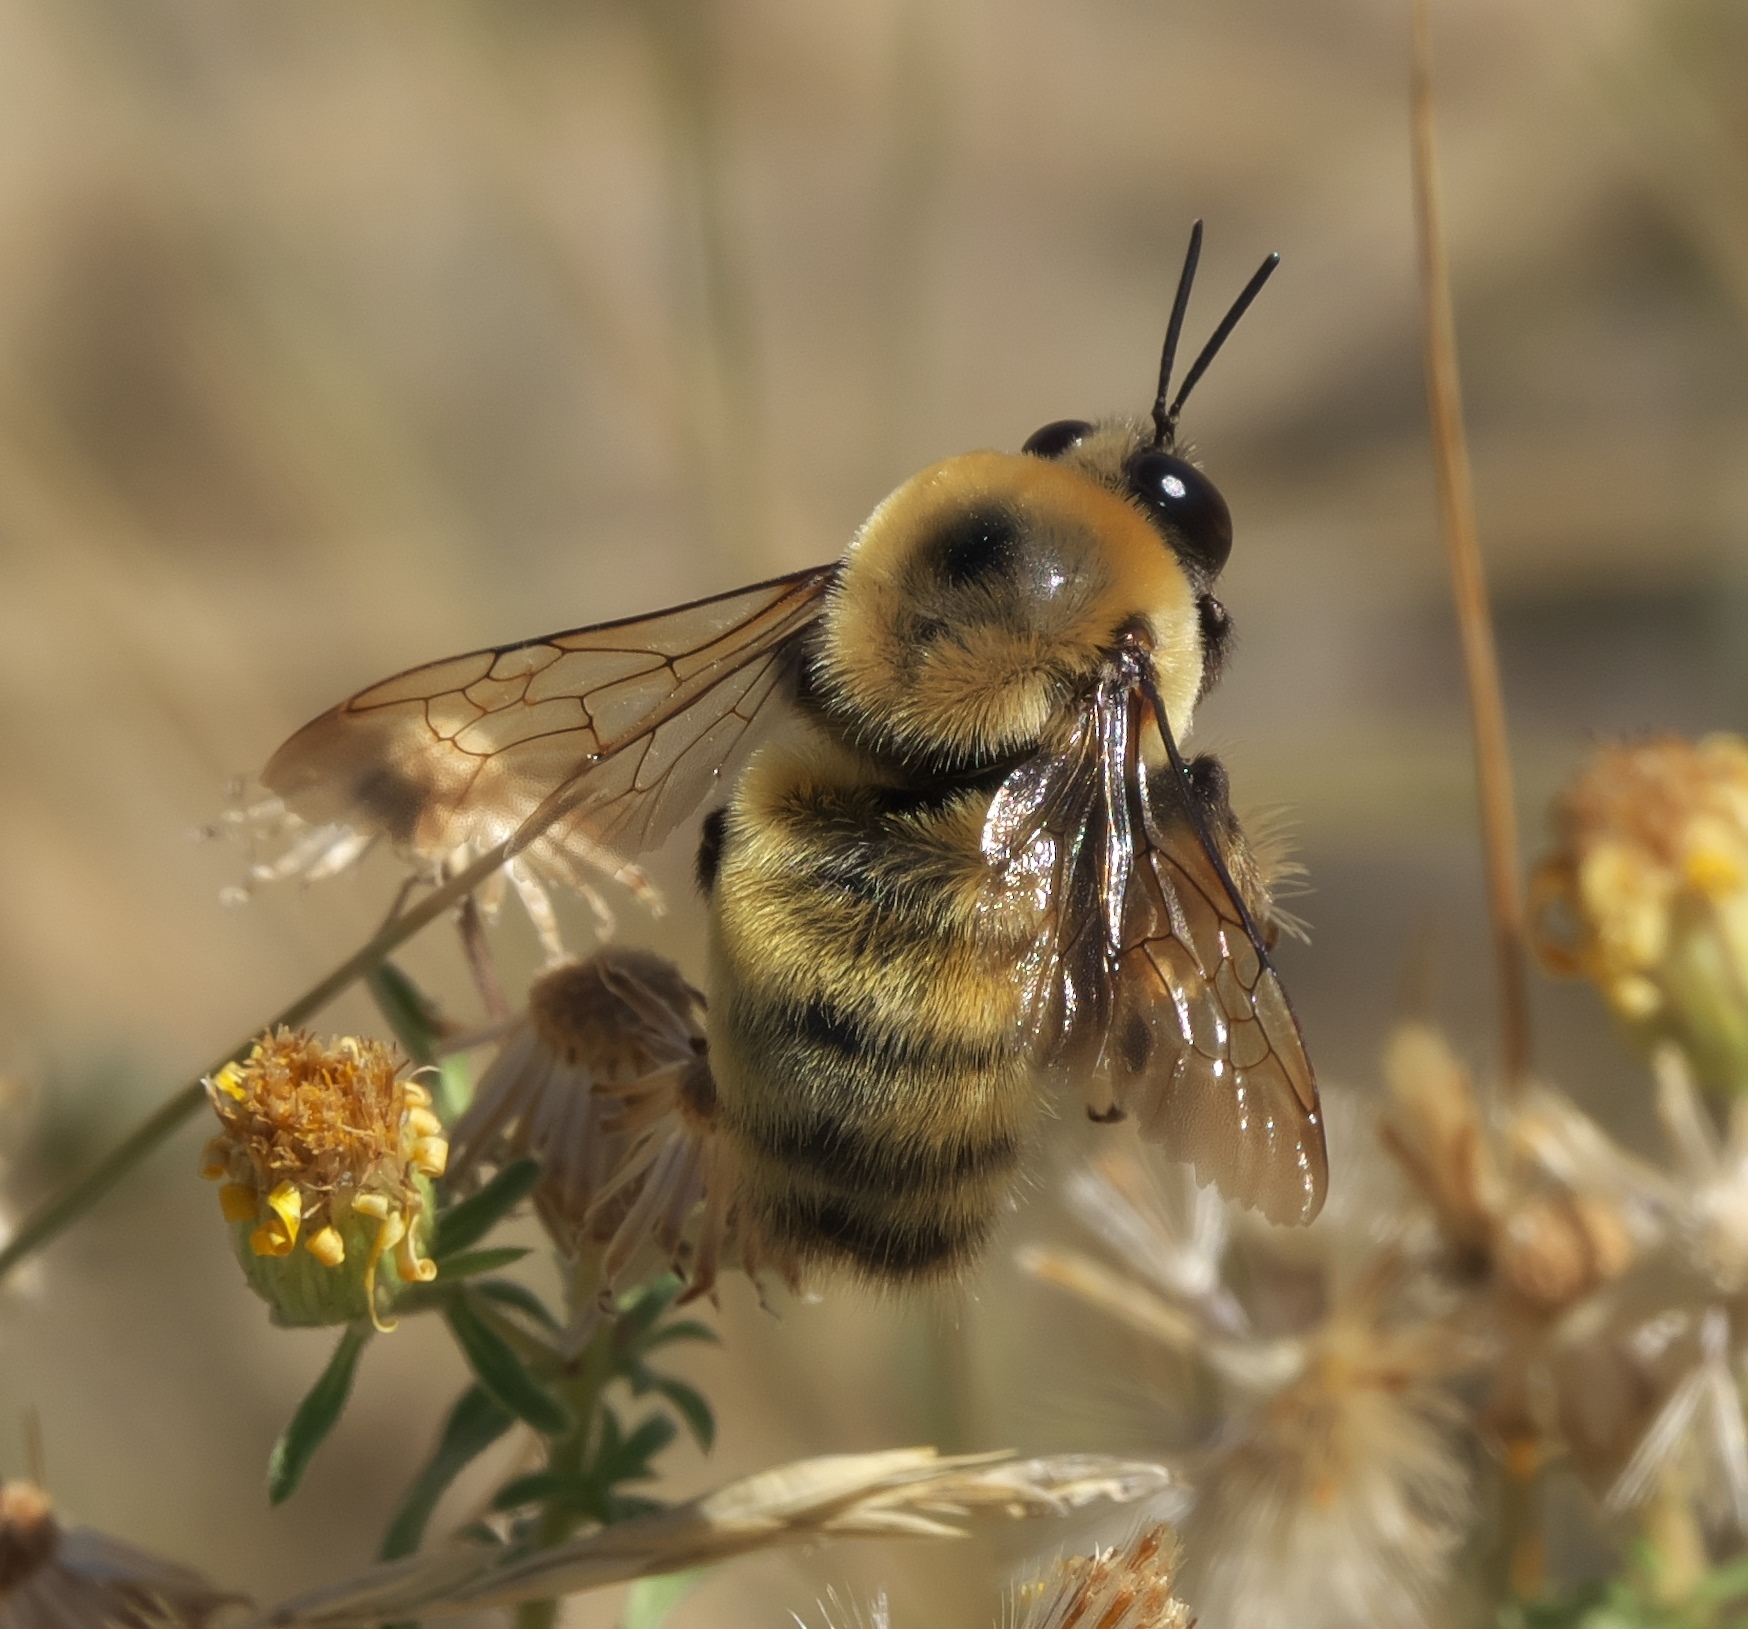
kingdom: Animalia
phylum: Arthropoda
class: Insecta
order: Hymenoptera
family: Apidae
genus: Bombus
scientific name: Bombus nevadensis
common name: Nevada bumble bee
